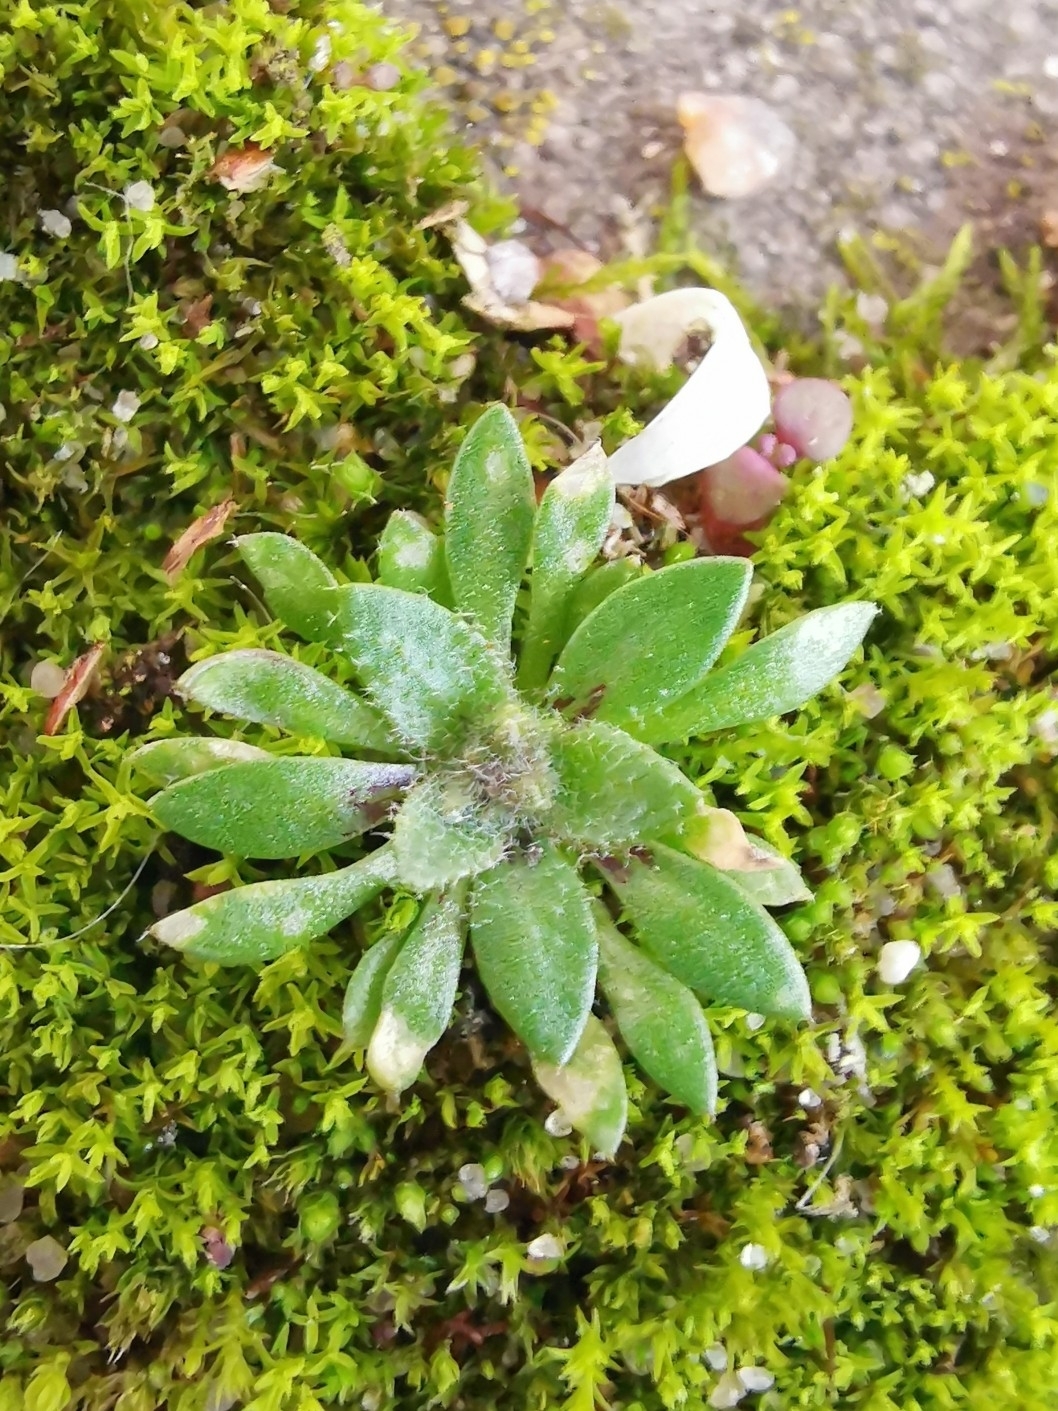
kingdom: Plantae
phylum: Tracheophyta
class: Magnoliopsida
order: Brassicales
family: Brassicaceae
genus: Draba
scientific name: Draba verna
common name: Spring draba
